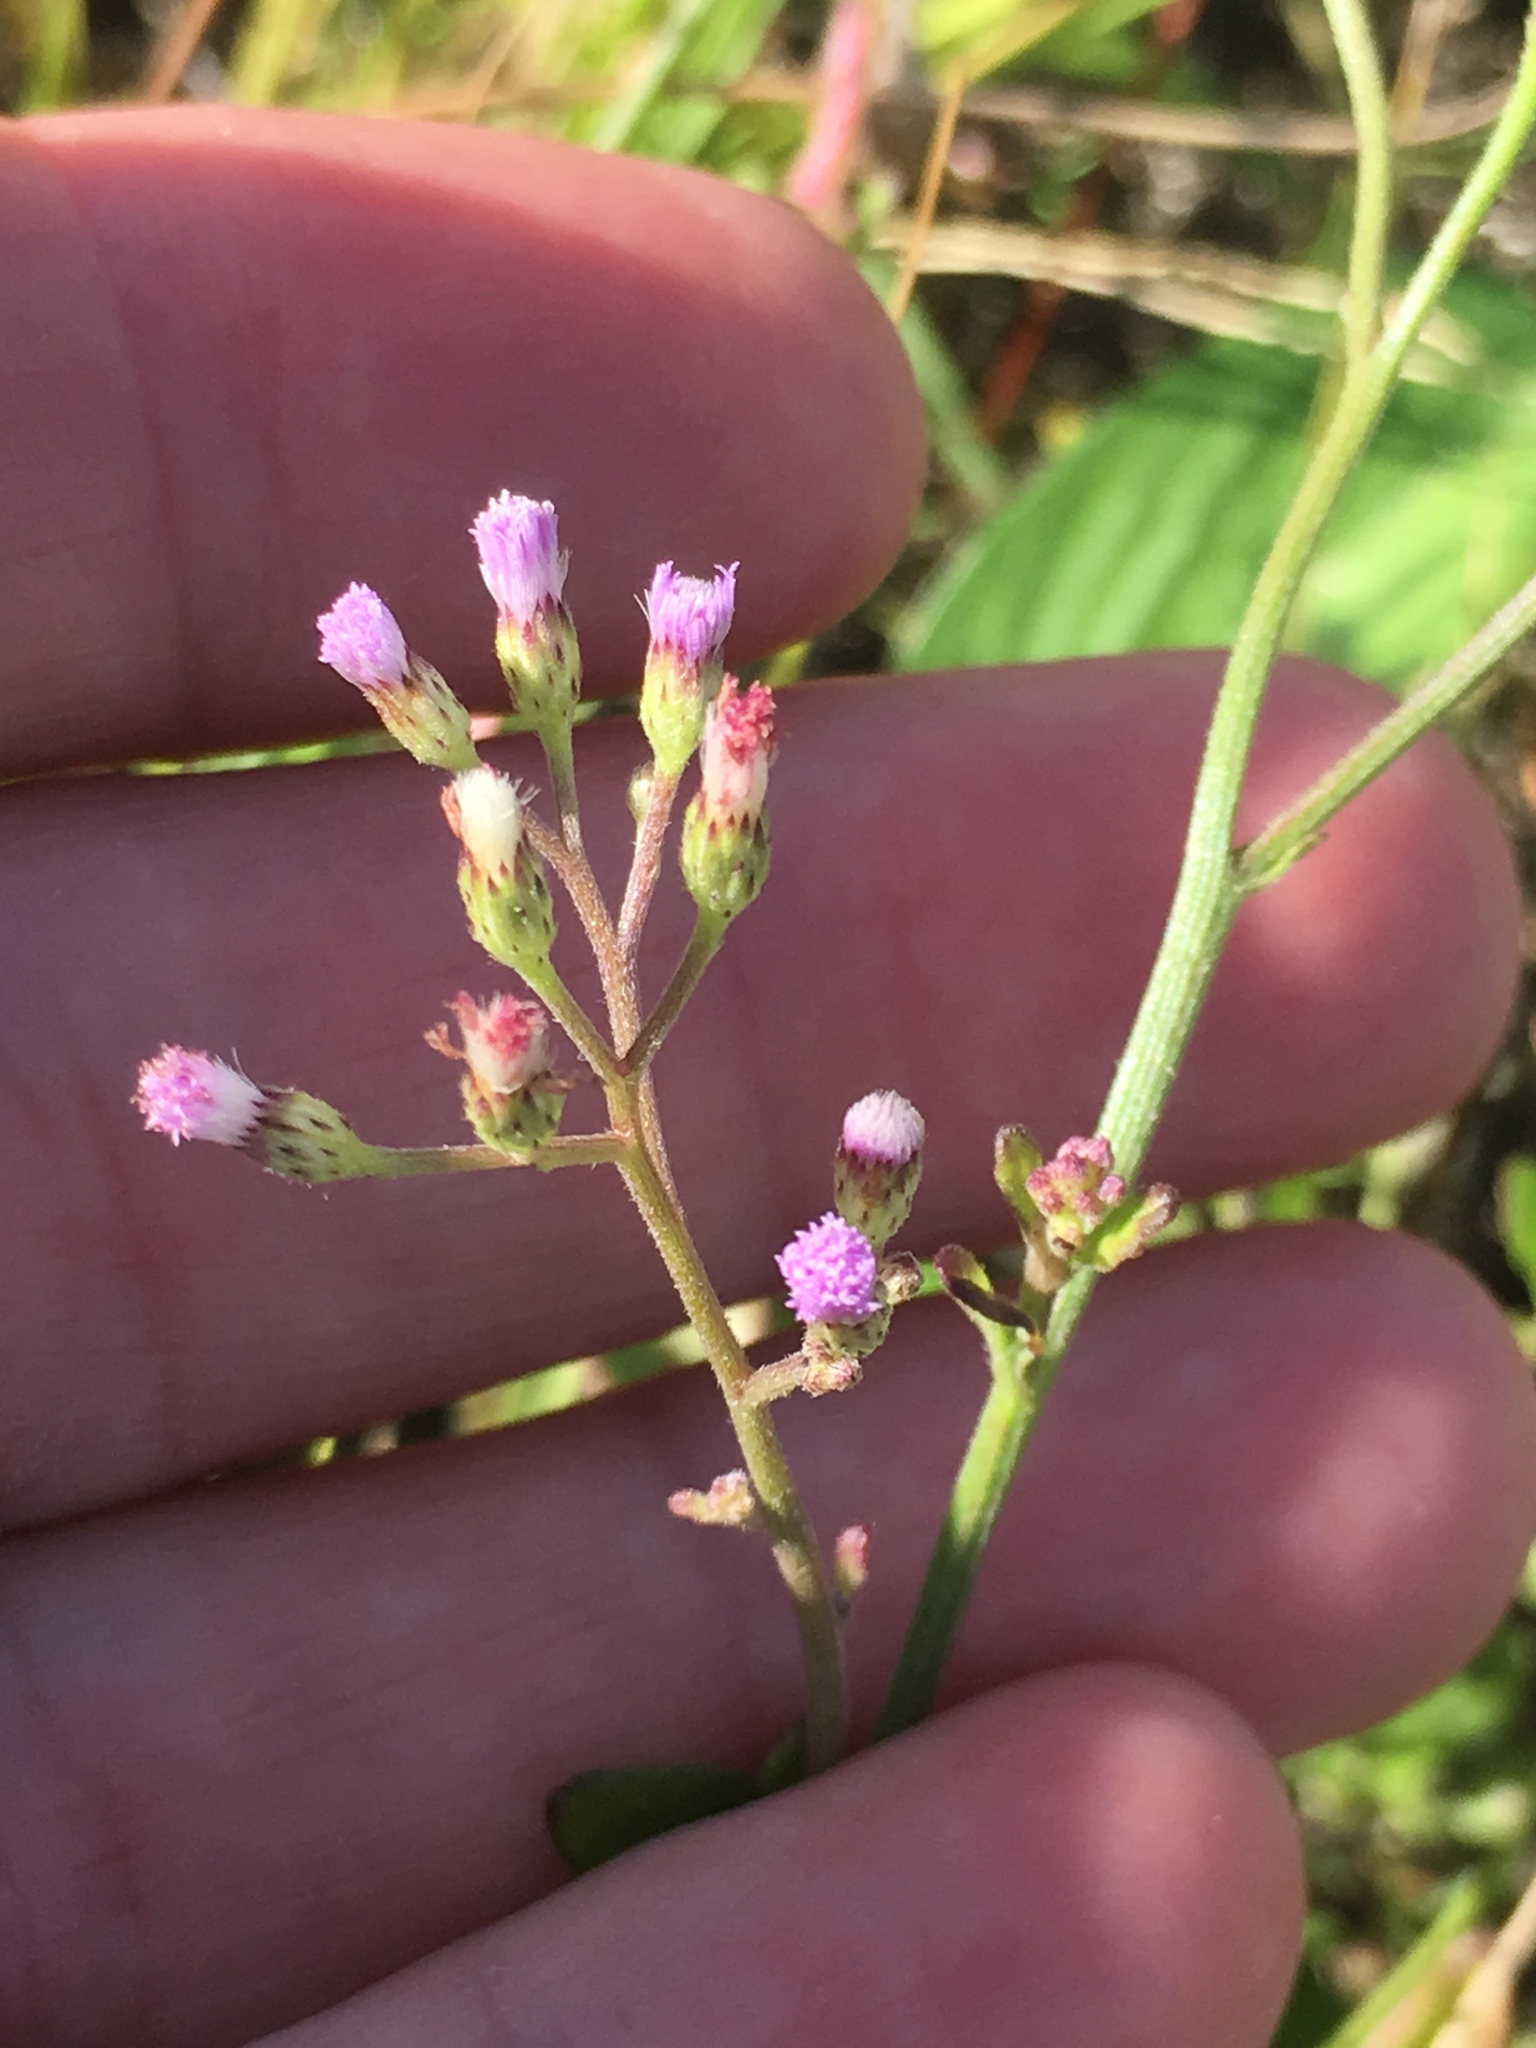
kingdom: Plantae
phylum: Tracheophyta
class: Magnoliopsida
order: Asterales
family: Asteraceae
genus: Cyanthillium
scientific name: Cyanthillium cinereum
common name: Little ironweed
